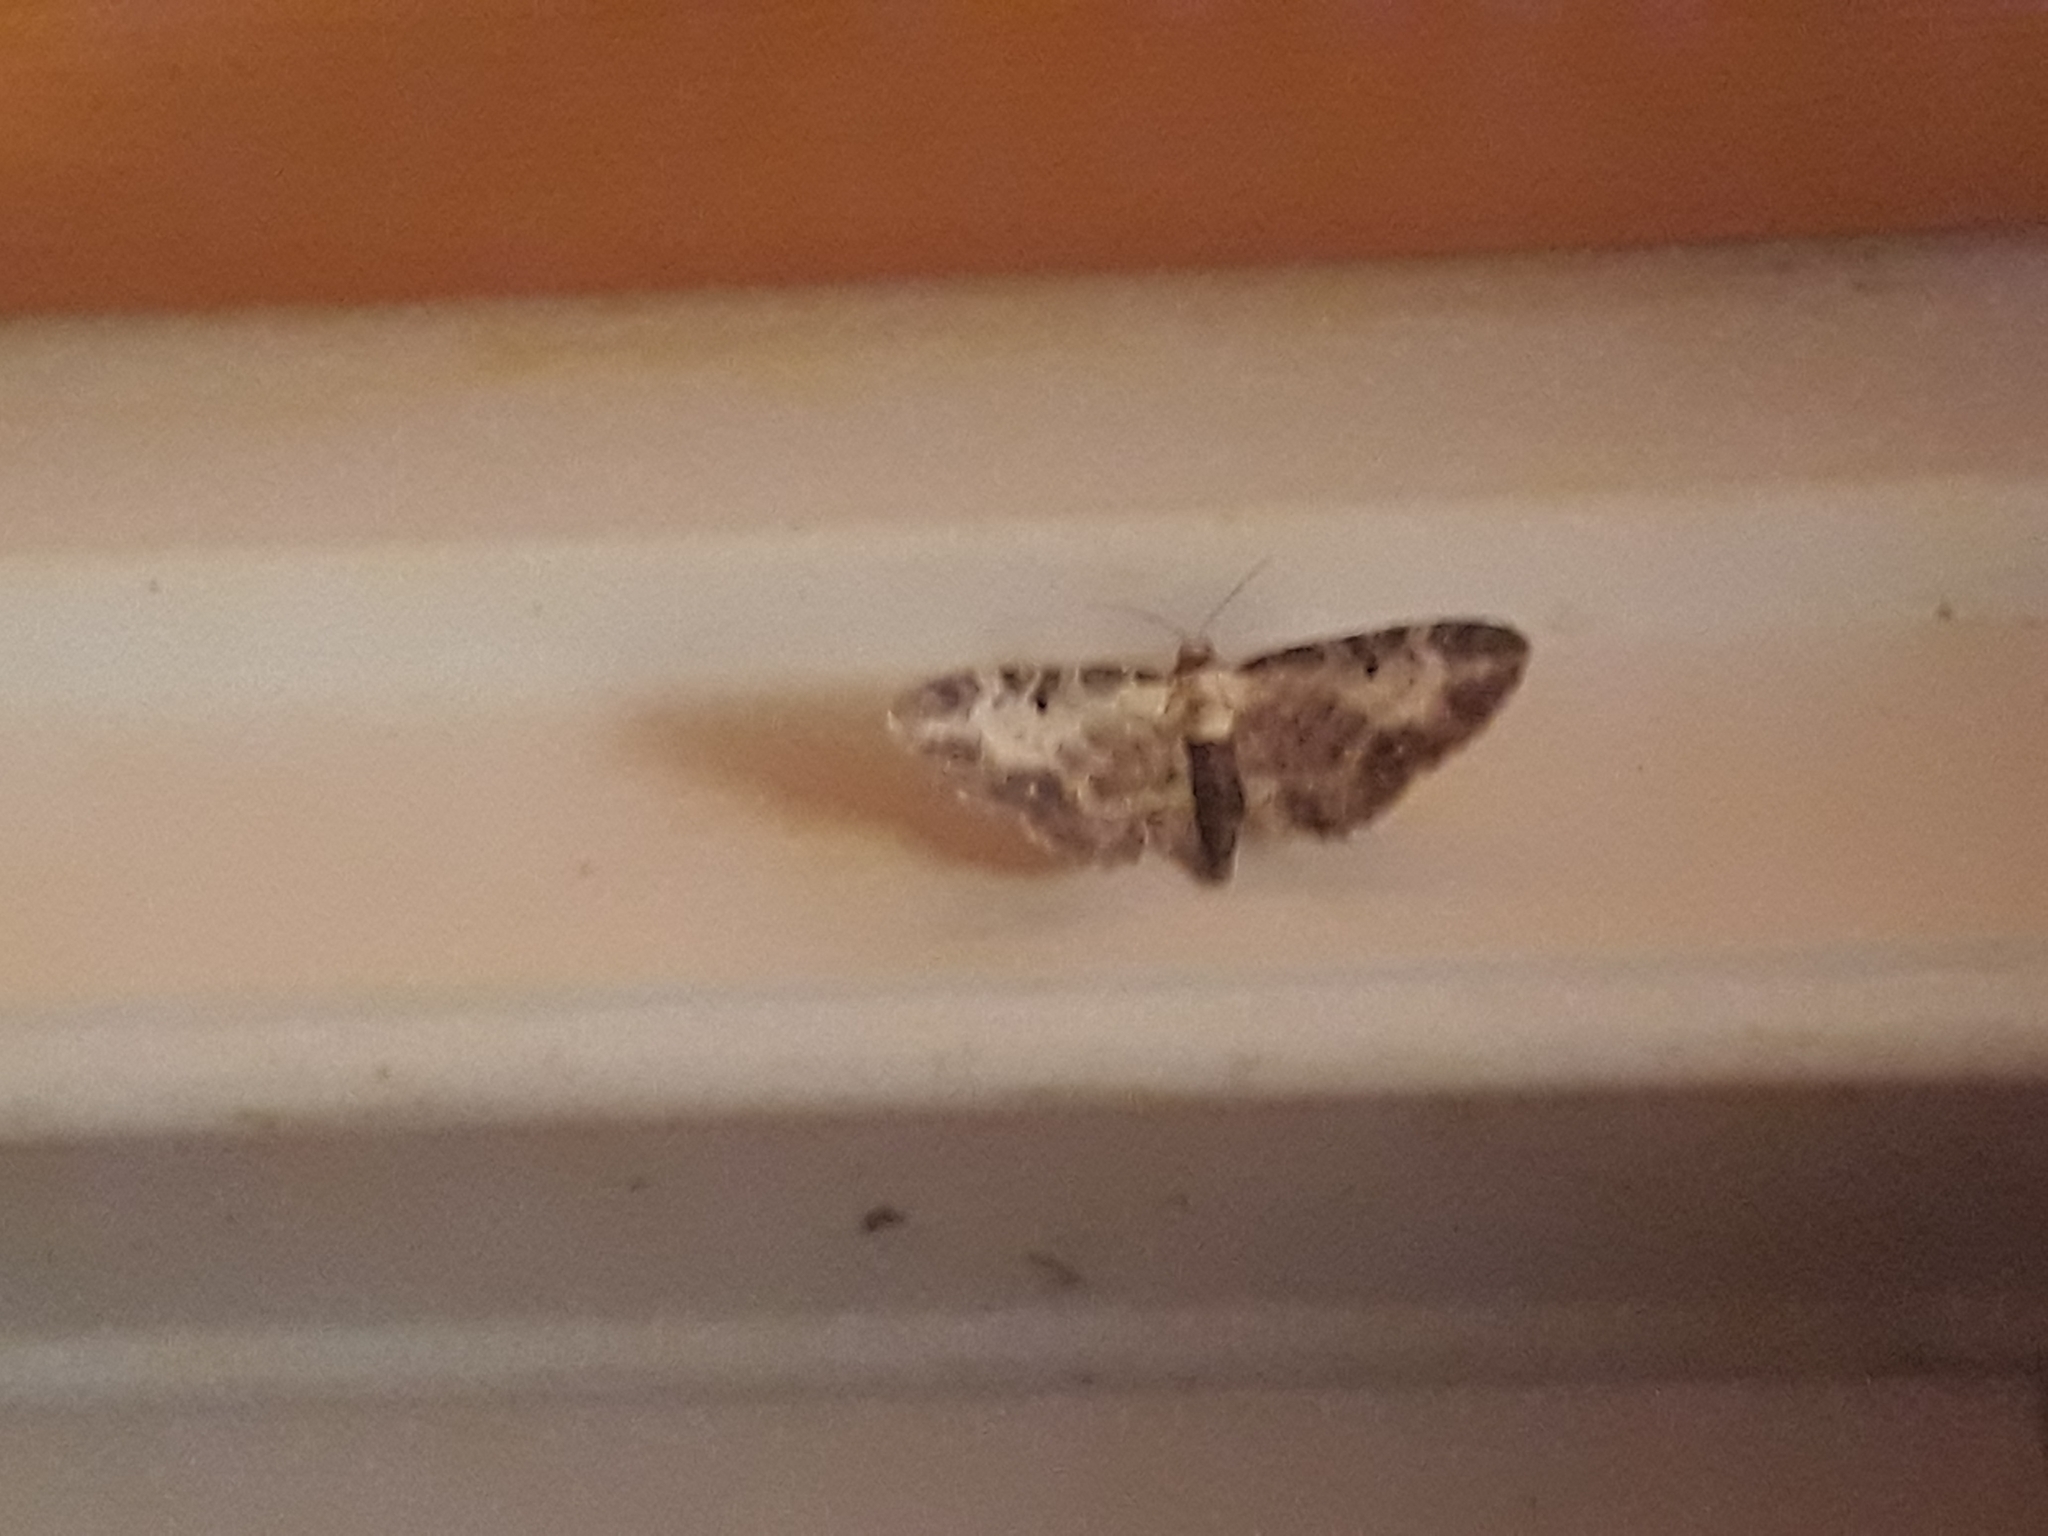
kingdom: Animalia
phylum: Arthropoda
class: Insecta
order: Lepidoptera
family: Geometridae
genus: Eupithecia
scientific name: Eupithecia succenturiata
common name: Bordered pug
